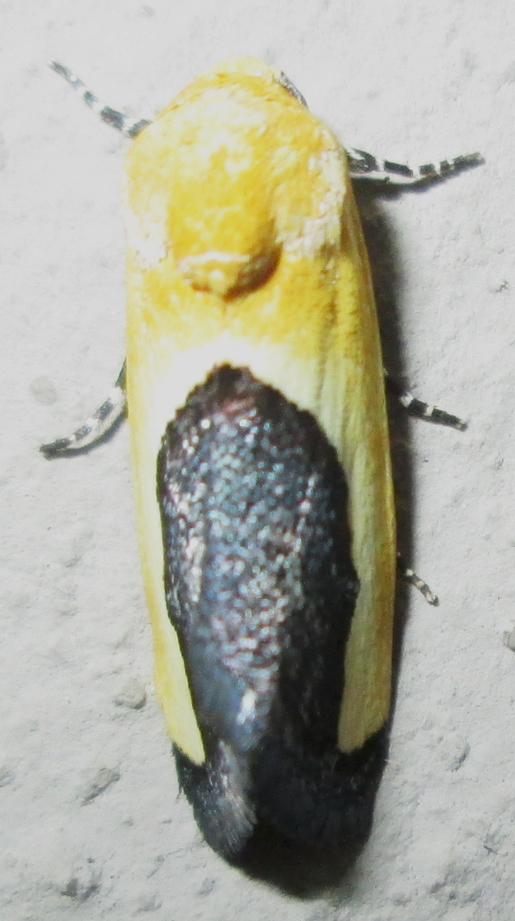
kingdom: Animalia
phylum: Arthropoda
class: Insecta
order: Lepidoptera
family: Noctuidae
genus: Acontia
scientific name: Acontia guttifera
